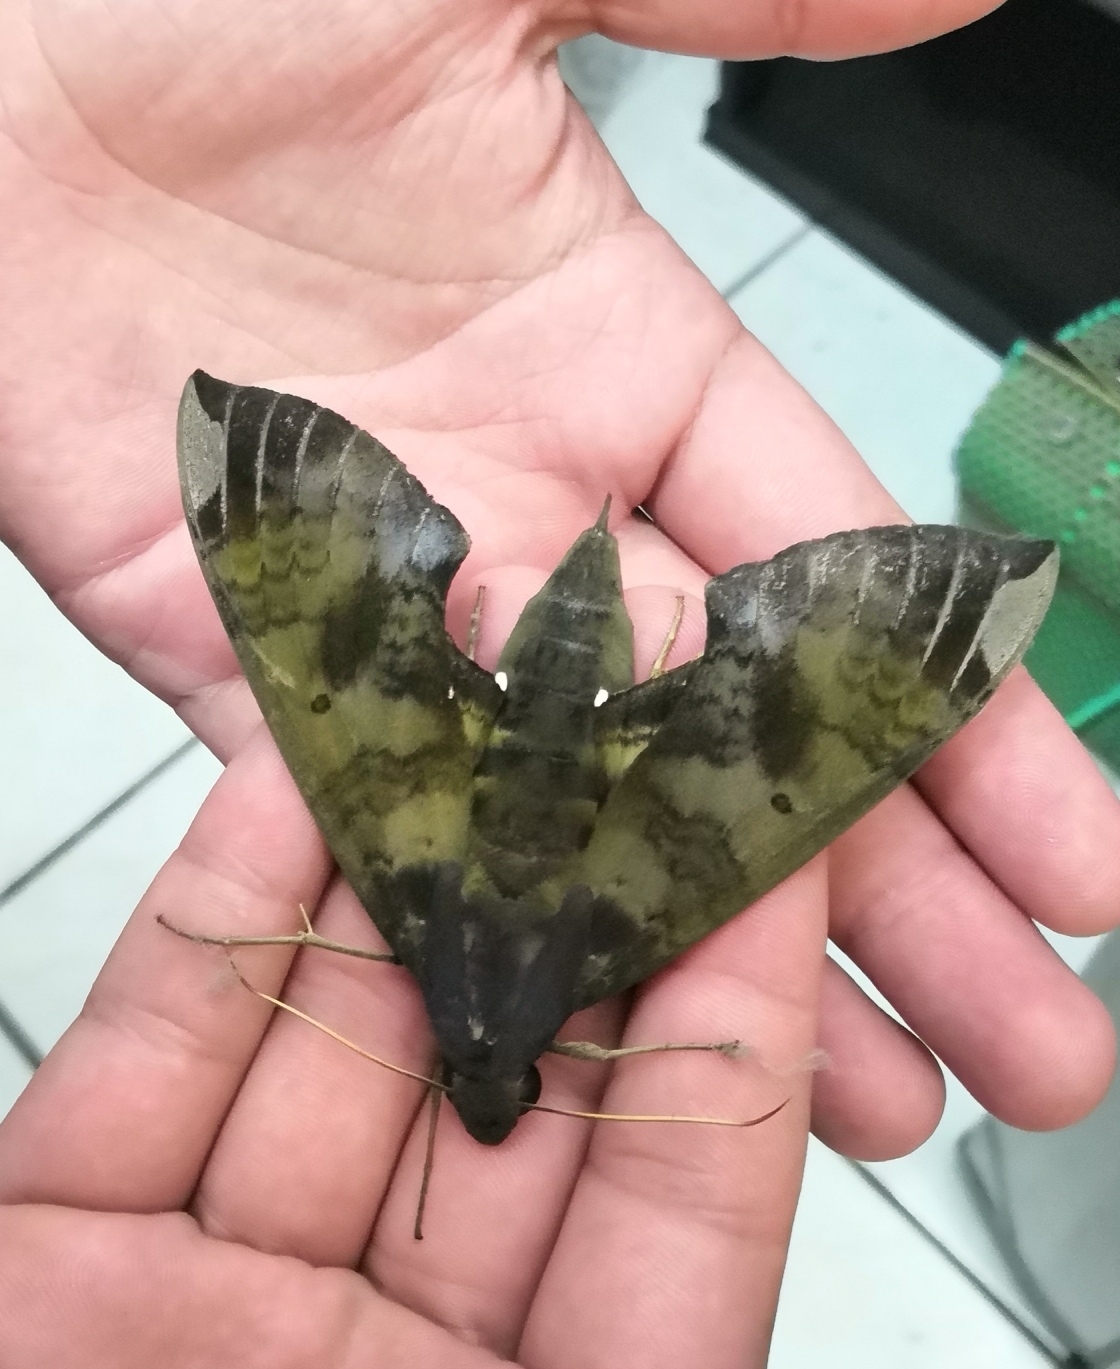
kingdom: Animalia
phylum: Arthropoda
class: Insecta
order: Lepidoptera
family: Sphingidae
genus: Pachylia
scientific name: Pachylia ficus
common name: Fig sphinx
